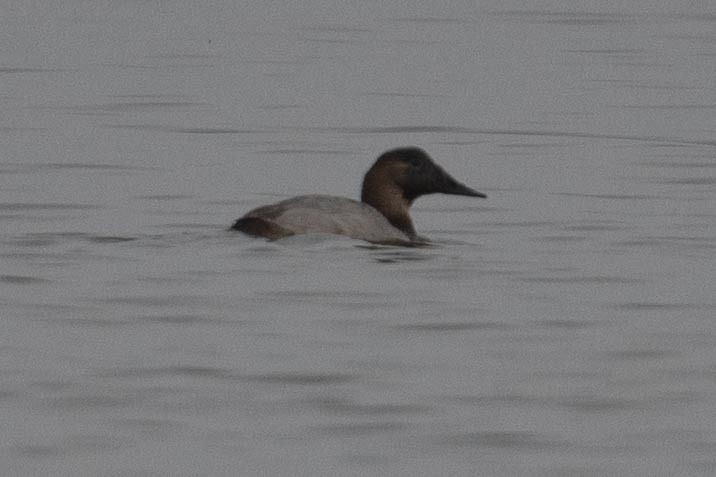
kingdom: Animalia
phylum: Chordata
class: Aves
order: Anseriformes
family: Anatidae
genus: Aythya
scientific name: Aythya valisineria
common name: Canvasback
